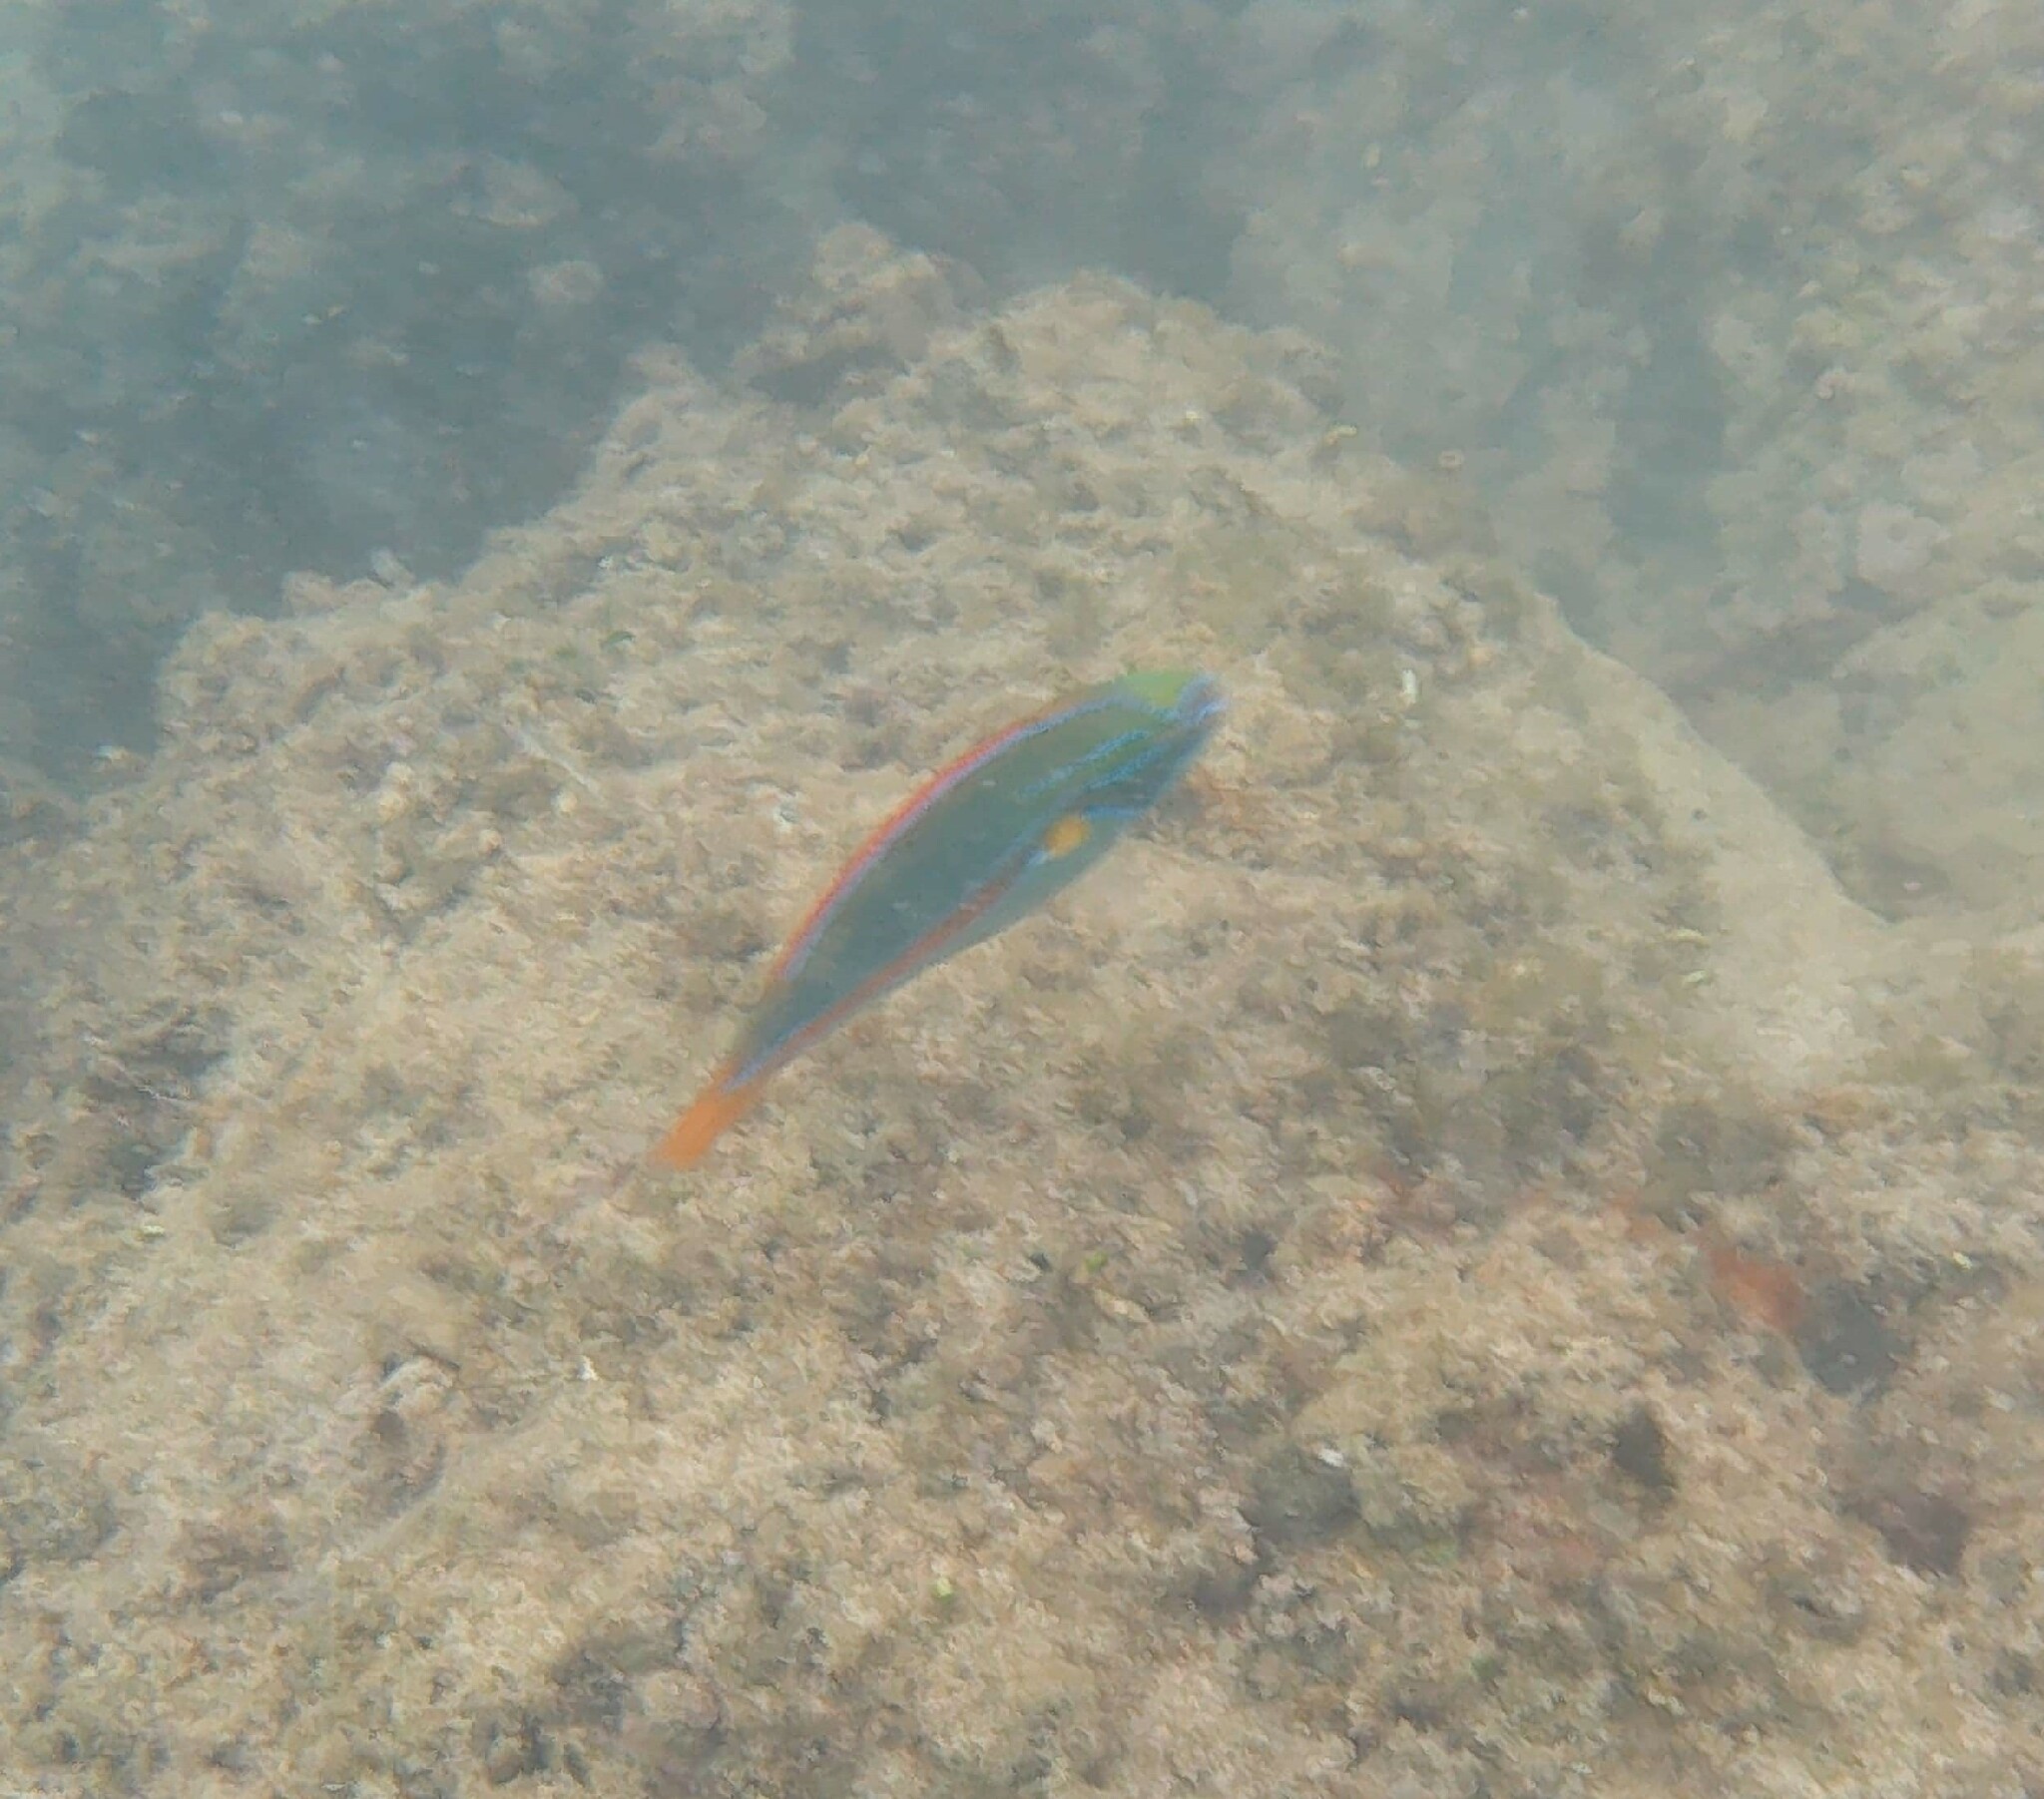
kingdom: Animalia
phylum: Chordata
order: Perciformes
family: Labridae
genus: Stethojulis
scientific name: Stethojulis balteata
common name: Belted wrasse
